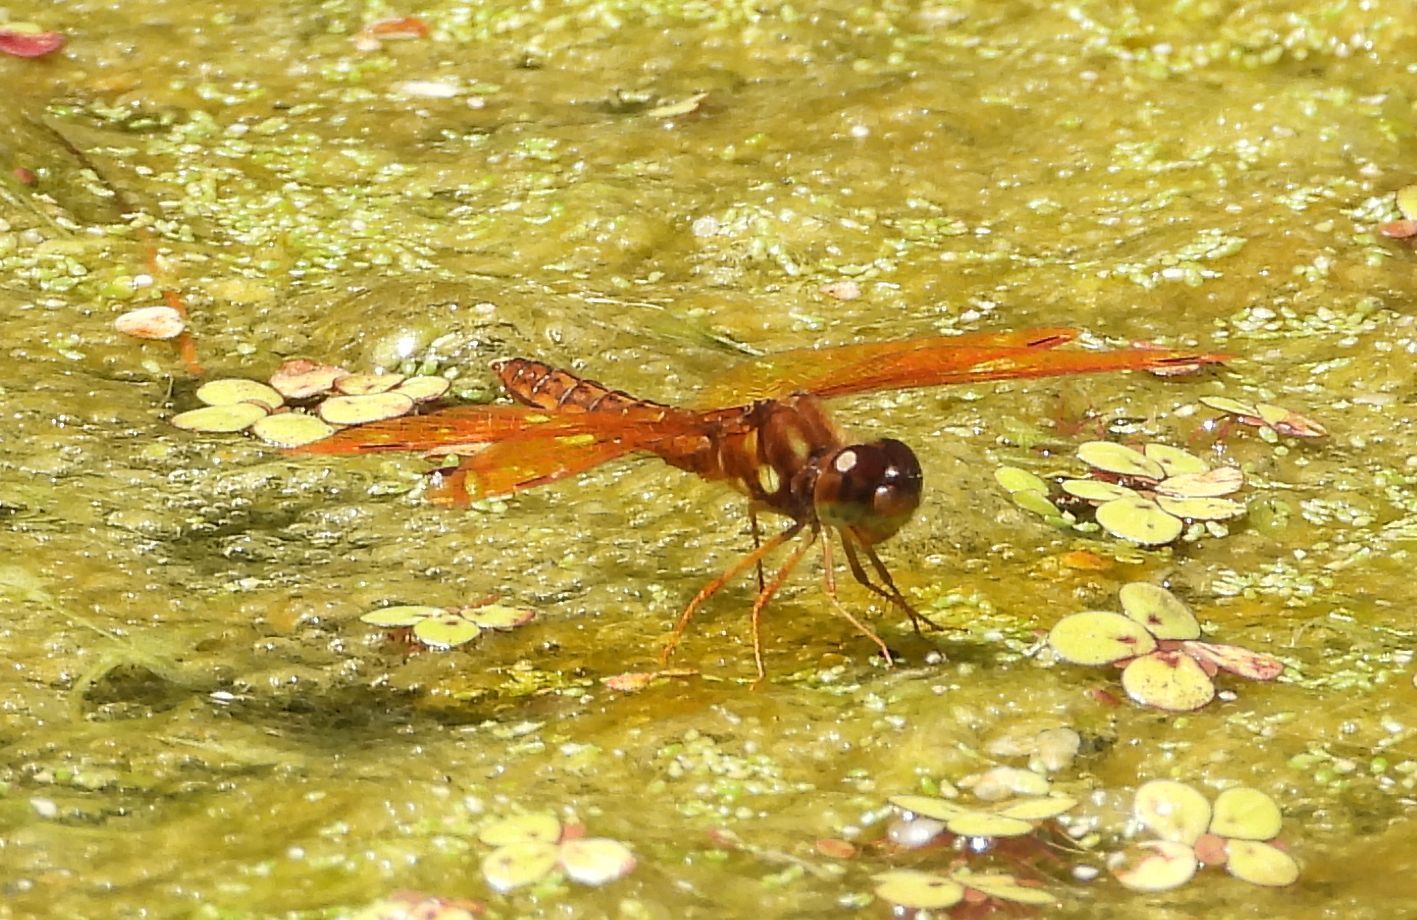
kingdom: Animalia
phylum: Arthropoda
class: Insecta
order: Odonata
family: Libellulidae
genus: Perithemis
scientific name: Perithemis tenera
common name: Eastern amberwing
